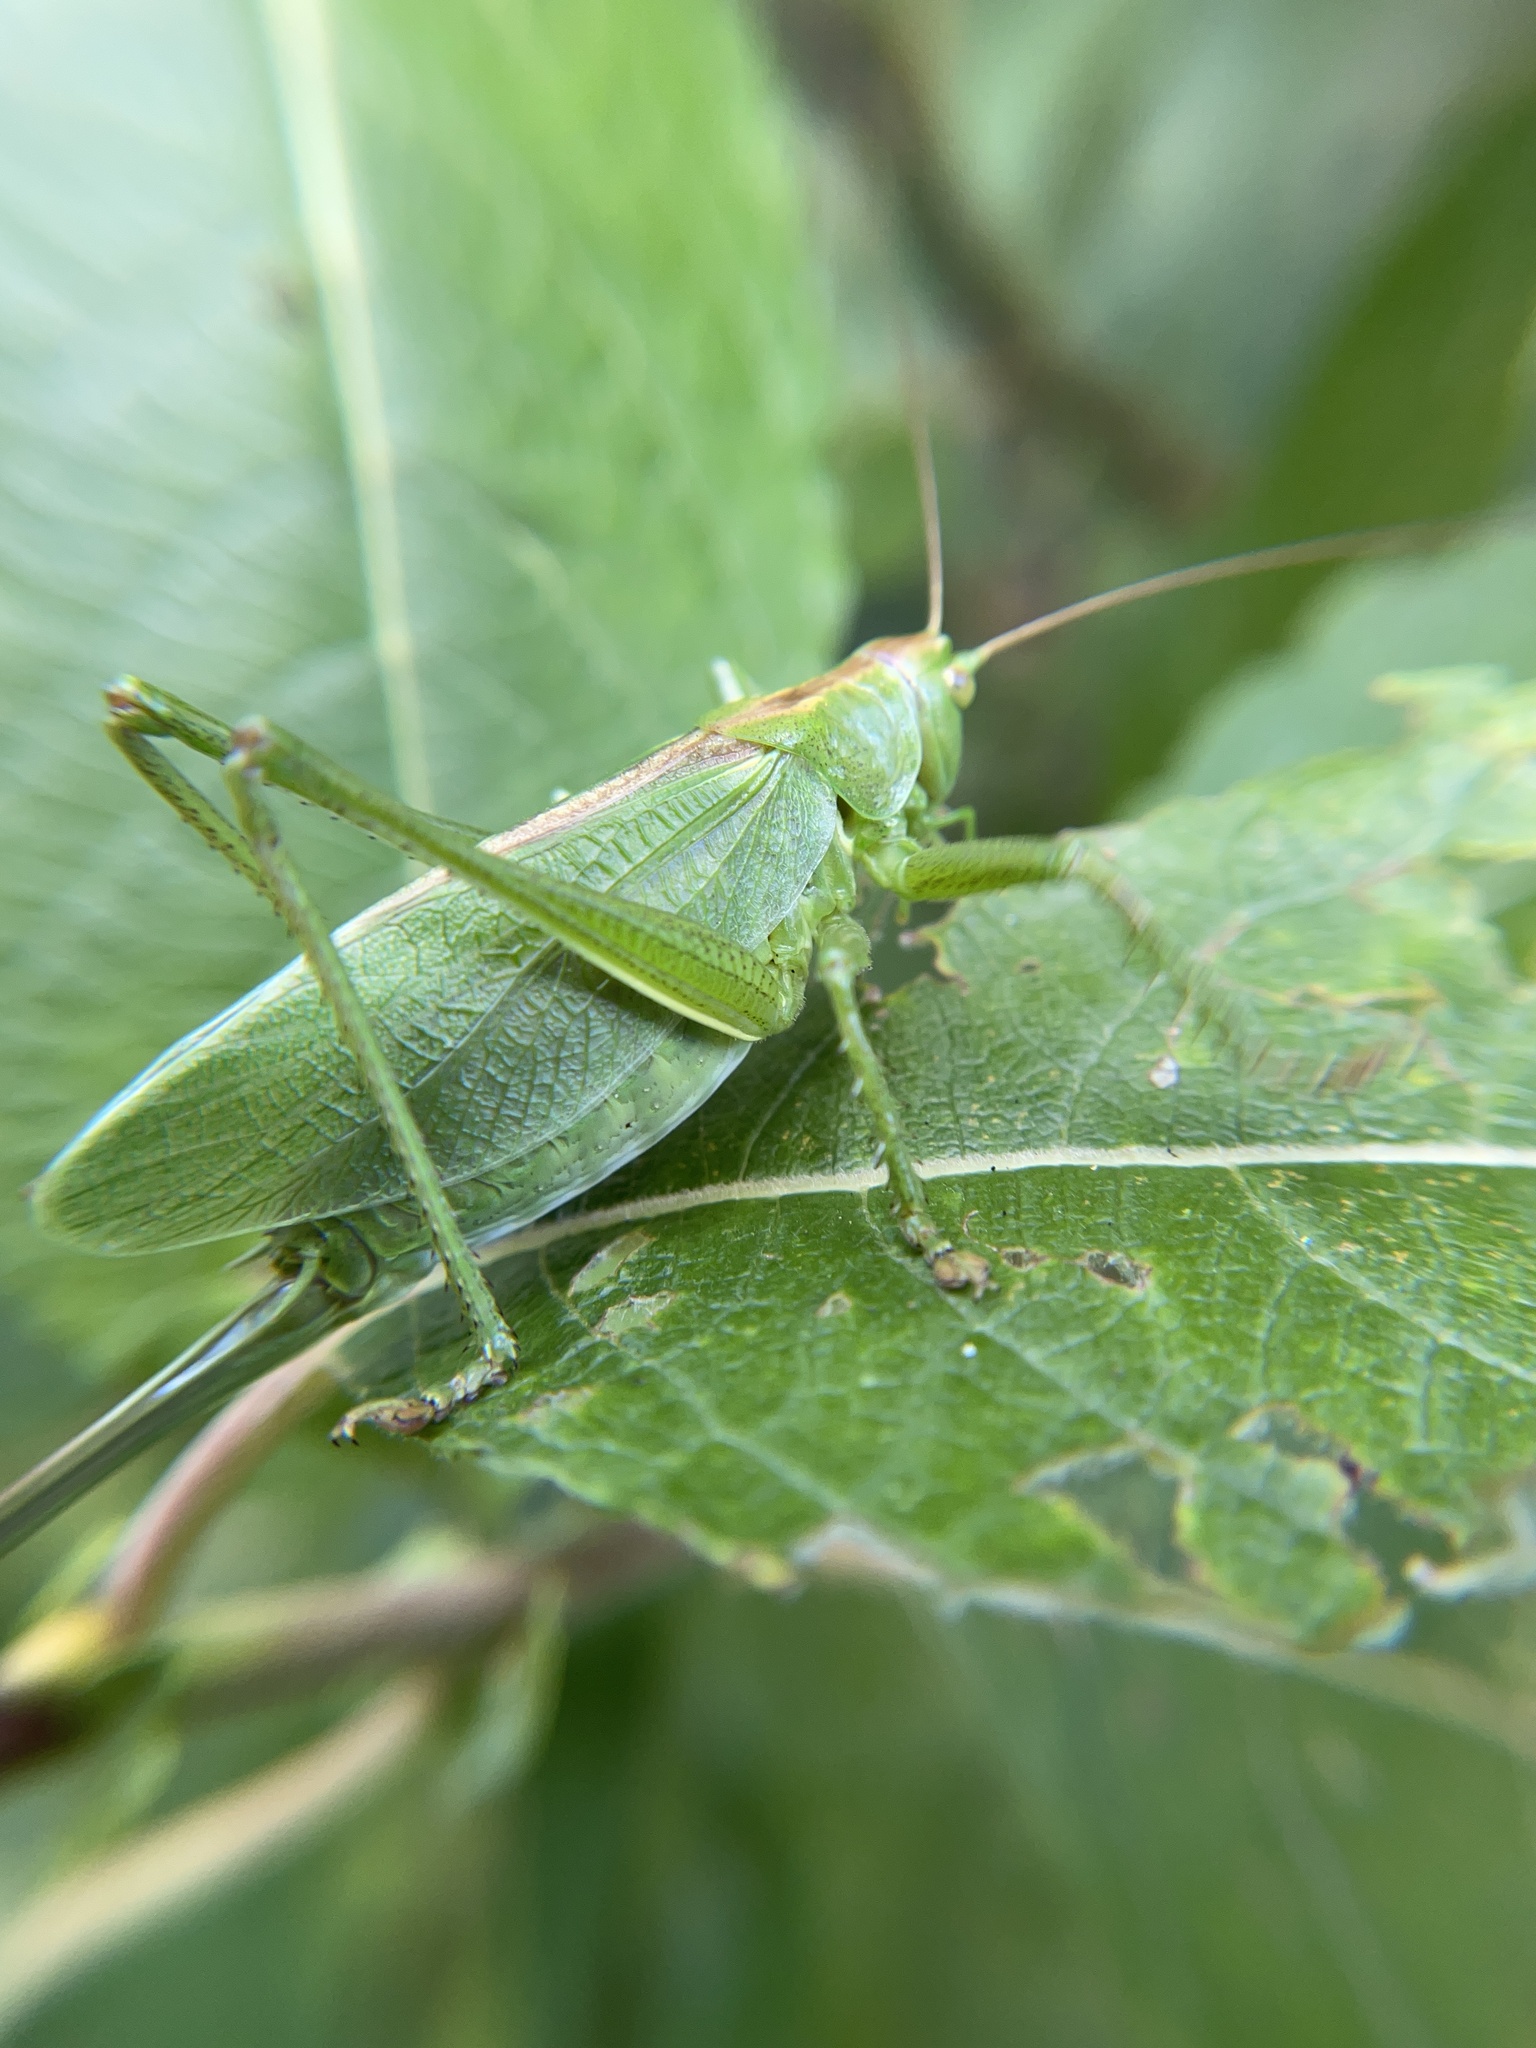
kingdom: Animalia
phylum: Arthropoda
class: Insecta
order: Orthoptera
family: Tettigoniidae
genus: Tettigonia
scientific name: Tettigonia cantans
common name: Upland green bush-cricket
